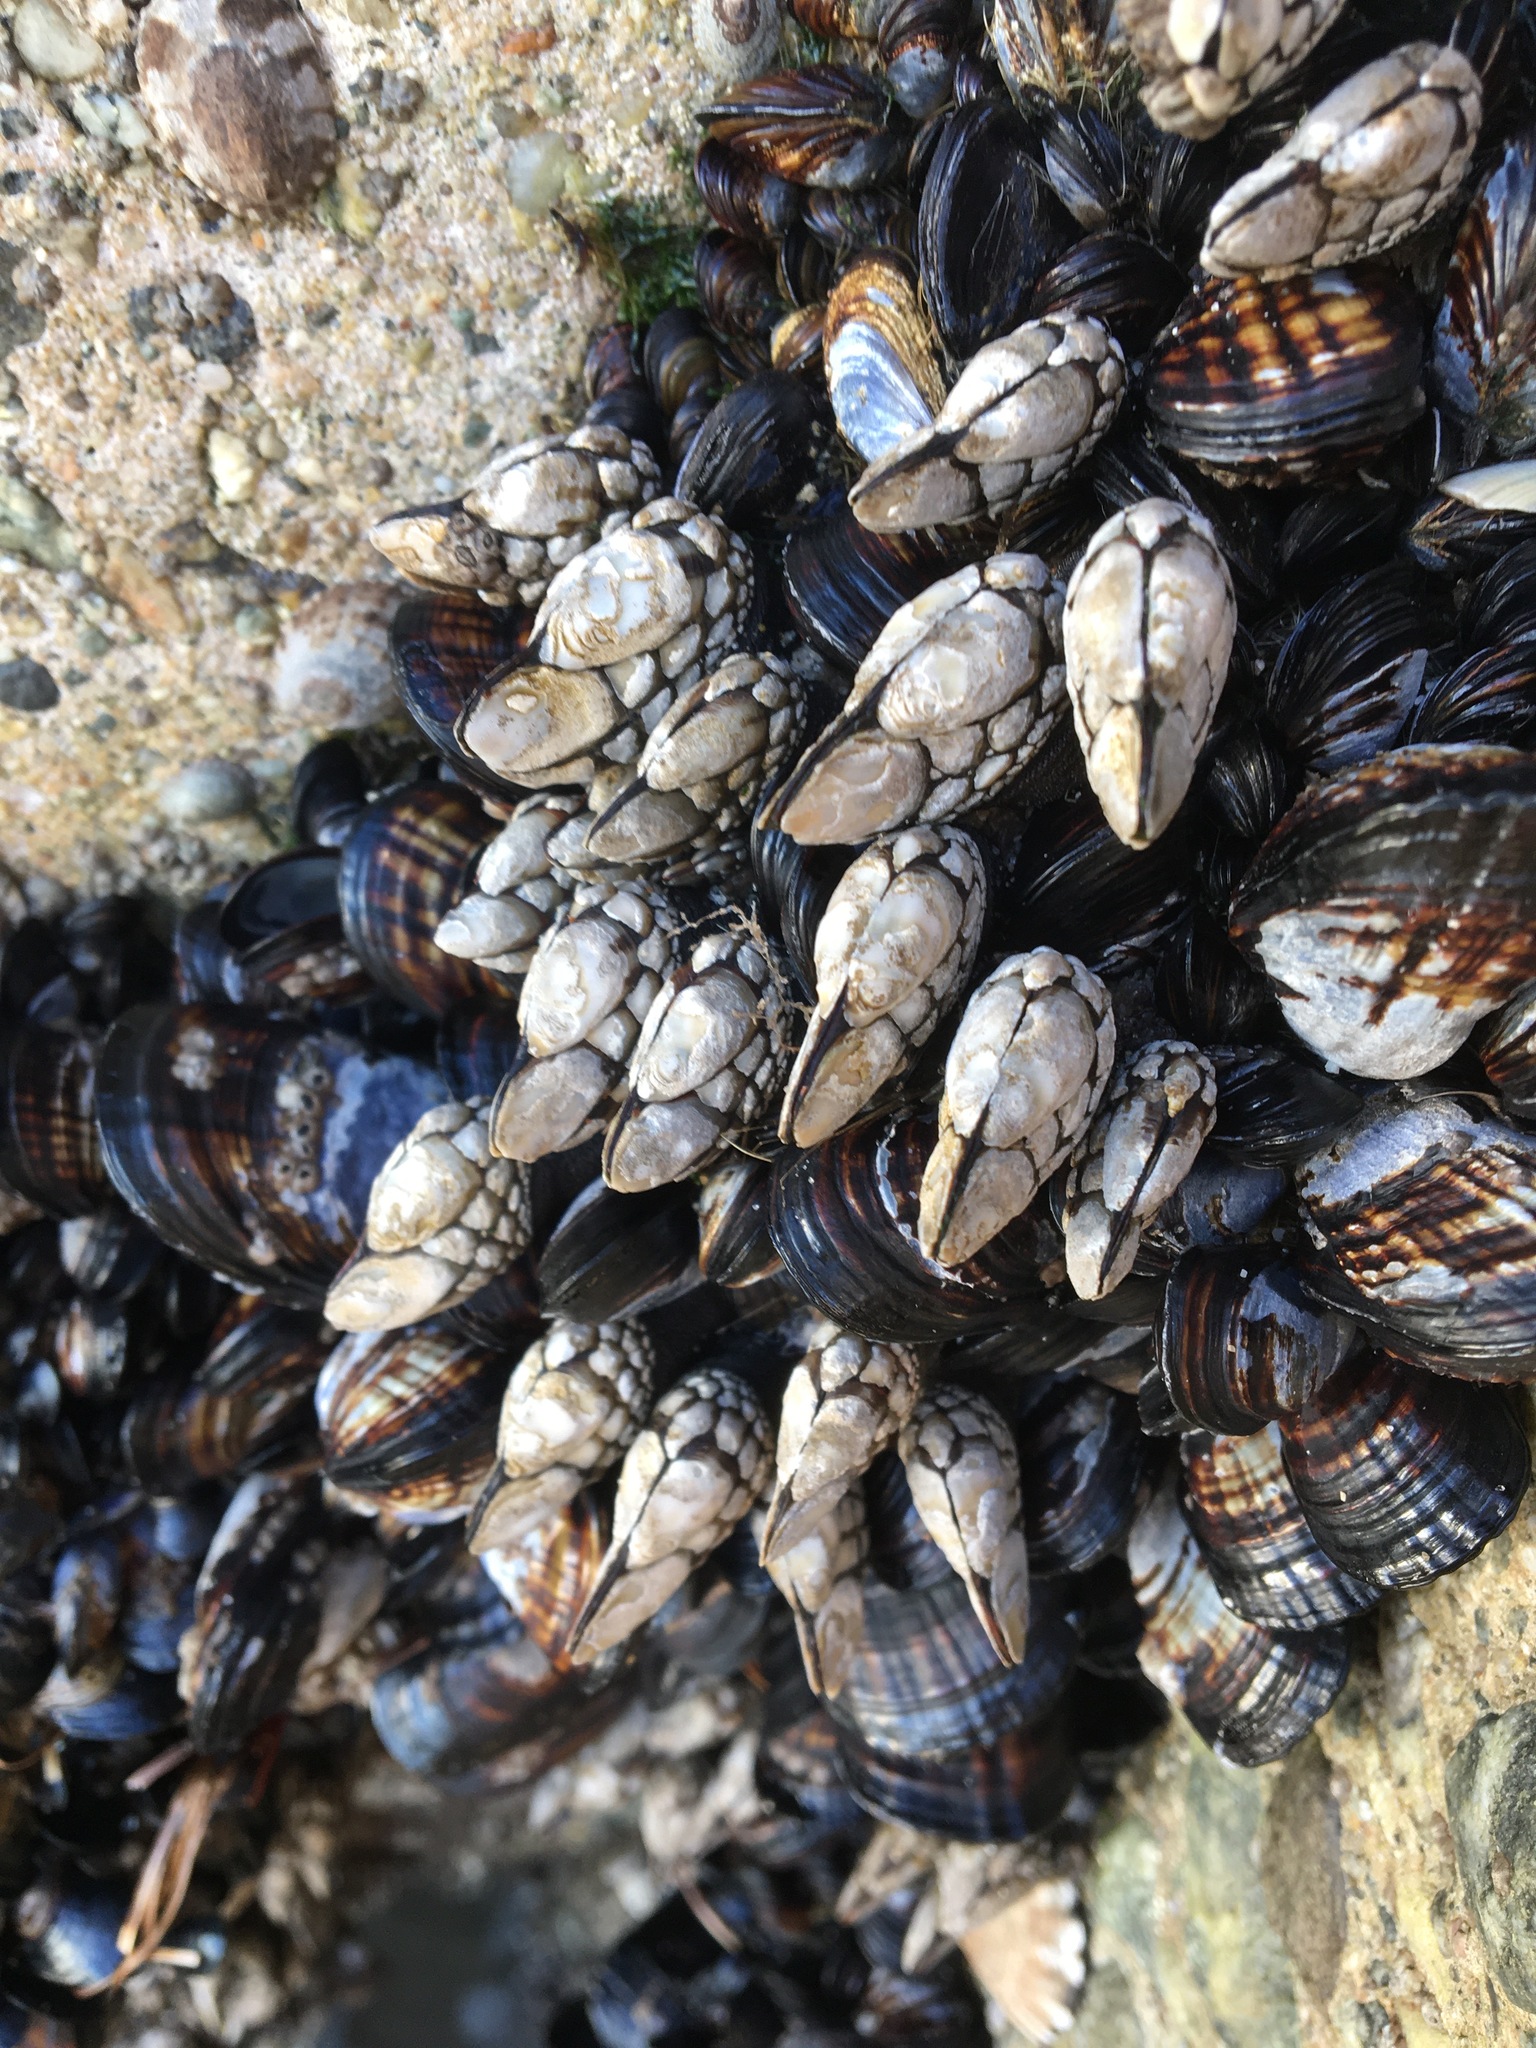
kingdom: Animalia
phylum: Arthropoda
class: Maxillopoda
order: Pedunculata
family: Pollicipedidae
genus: Pollicipes
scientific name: Pollicipes polymerus
